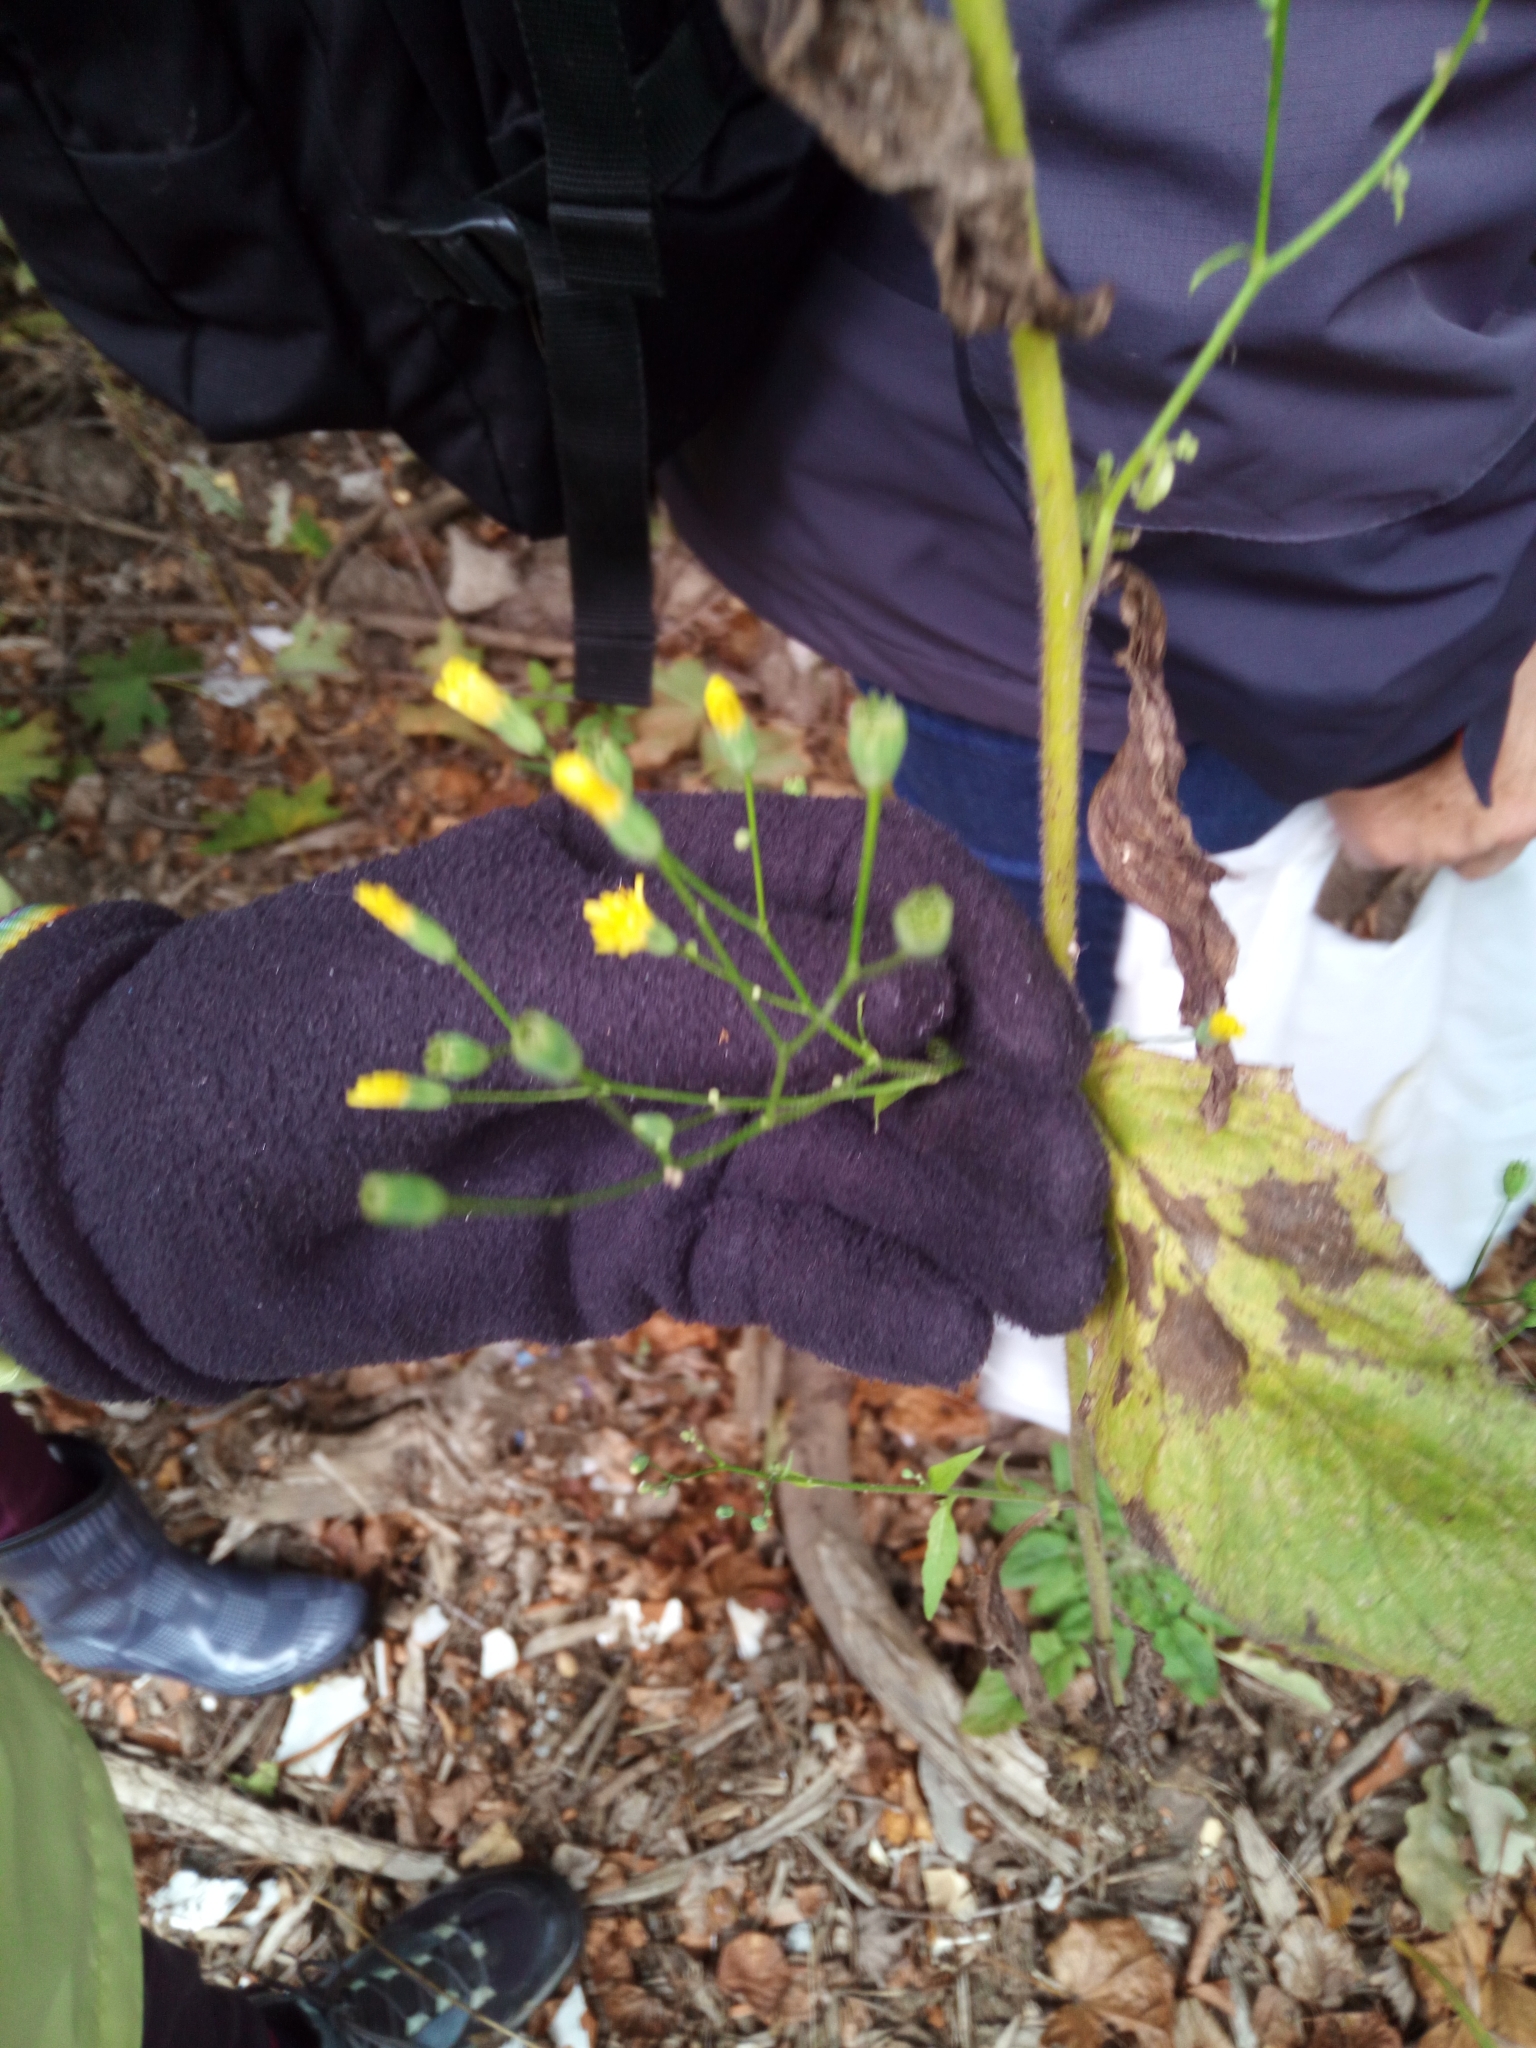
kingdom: Plantae
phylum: Tracheophyta
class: Magnoliopsida
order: Asterales
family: Asteraceae
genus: Lapsana
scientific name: Lapsana communis
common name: Nipplewort
